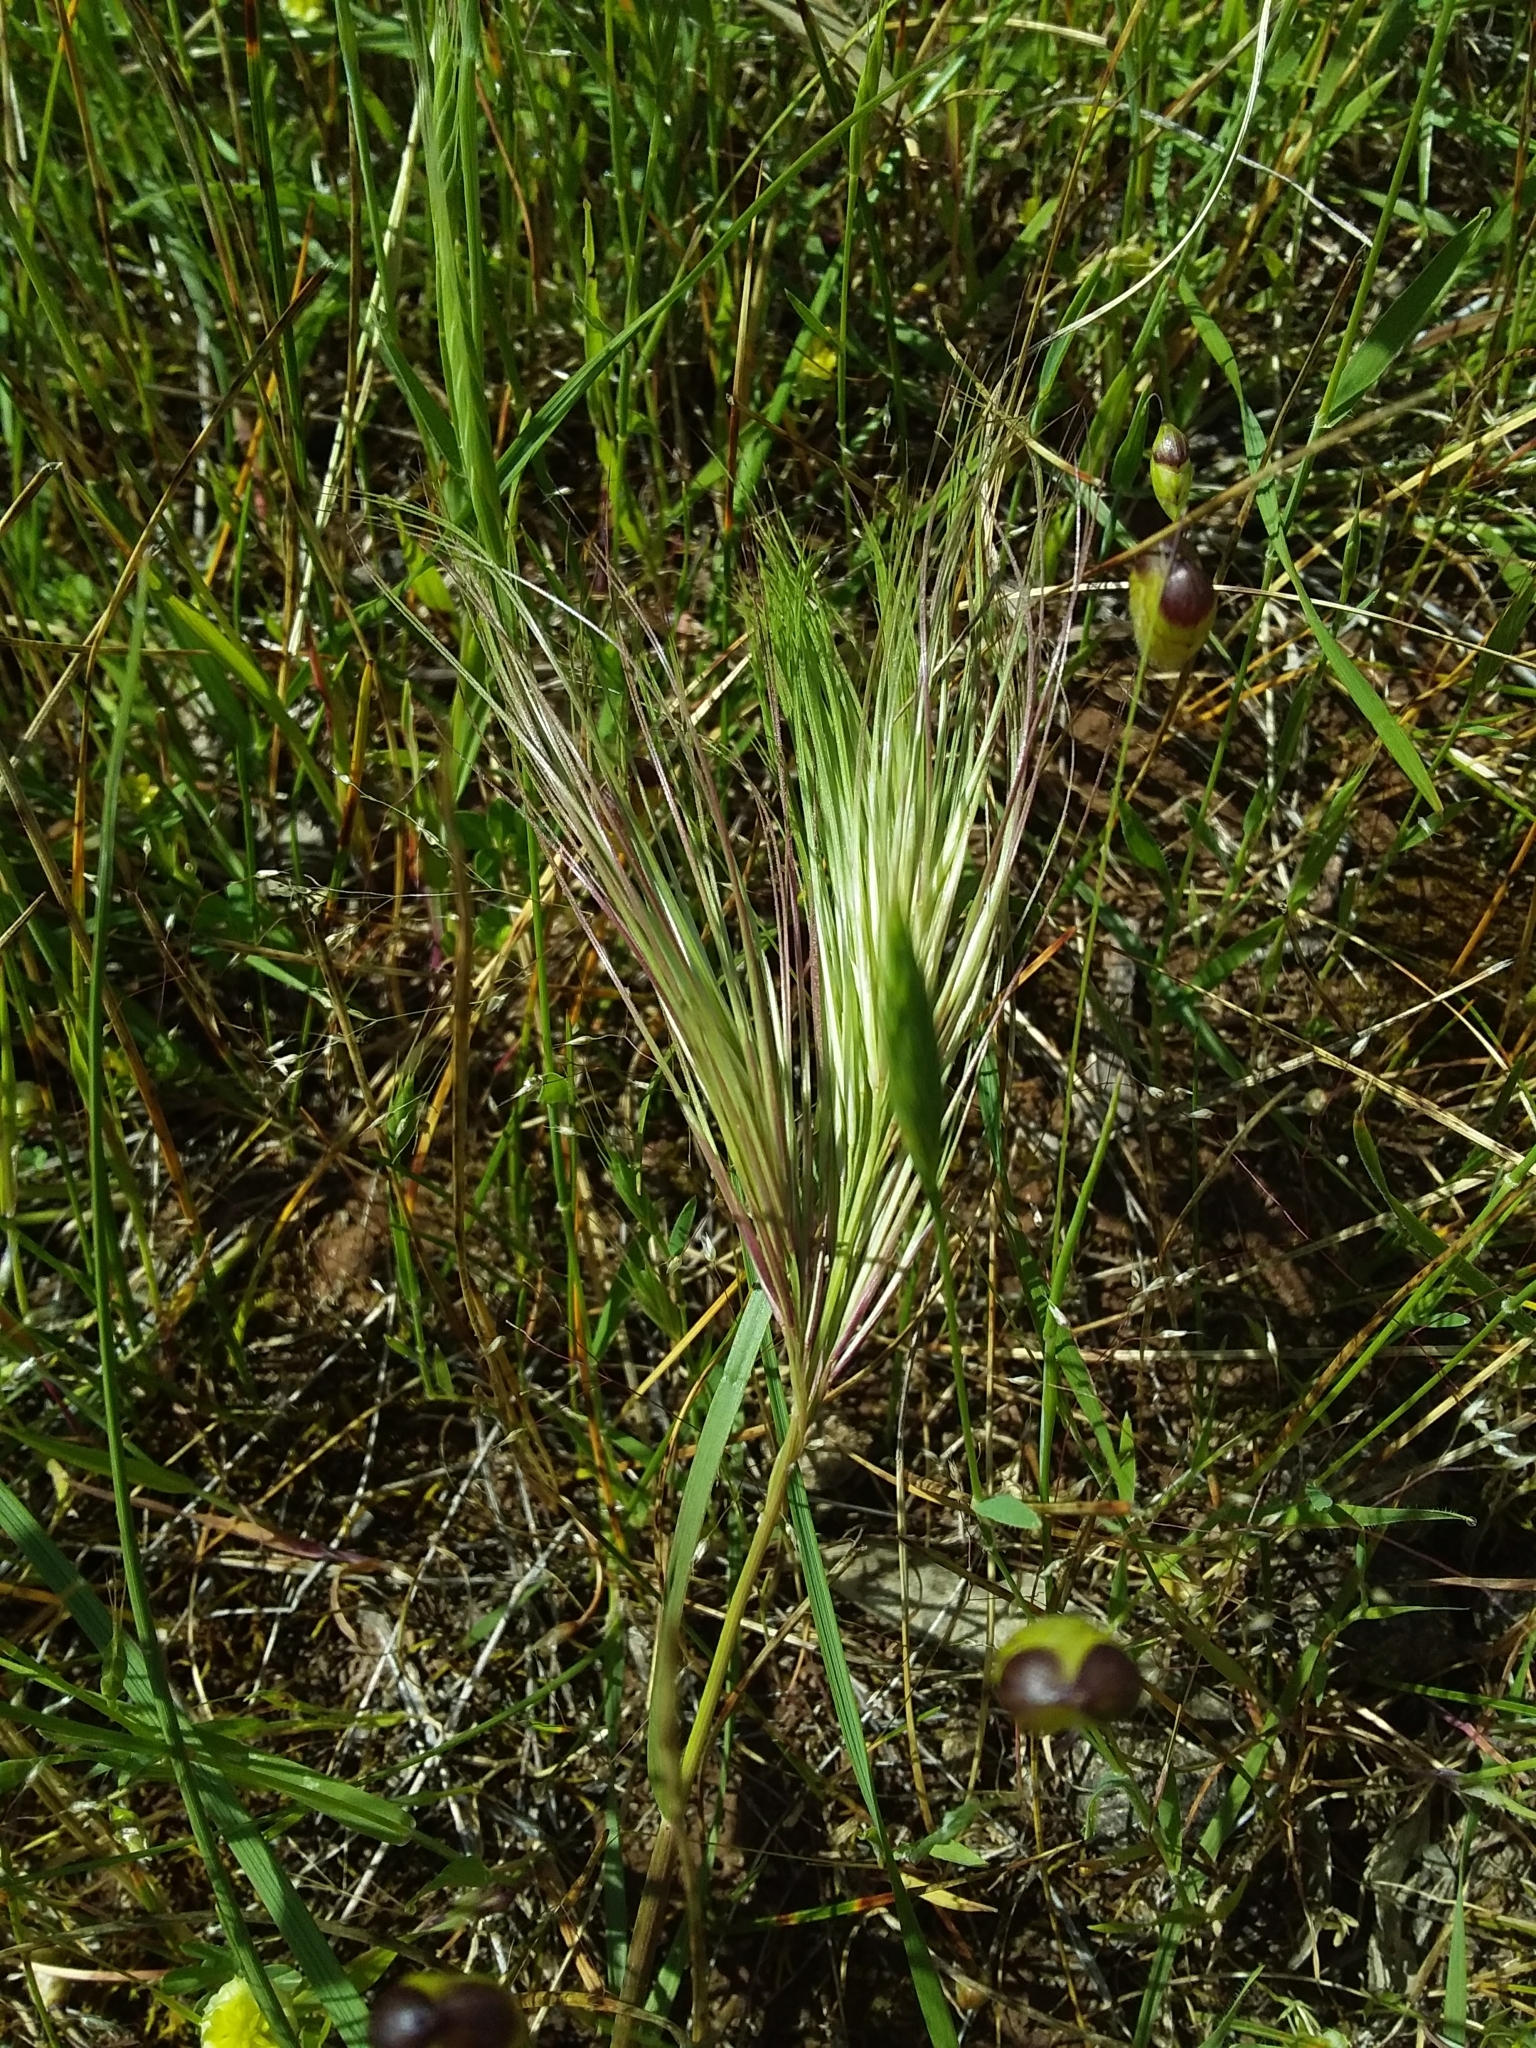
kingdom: Plantae
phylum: Tracheophyta
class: Liliopsida
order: Poales
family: Poaceae
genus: Aristida
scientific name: Aristida behriana
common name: Long-awn wire grass
